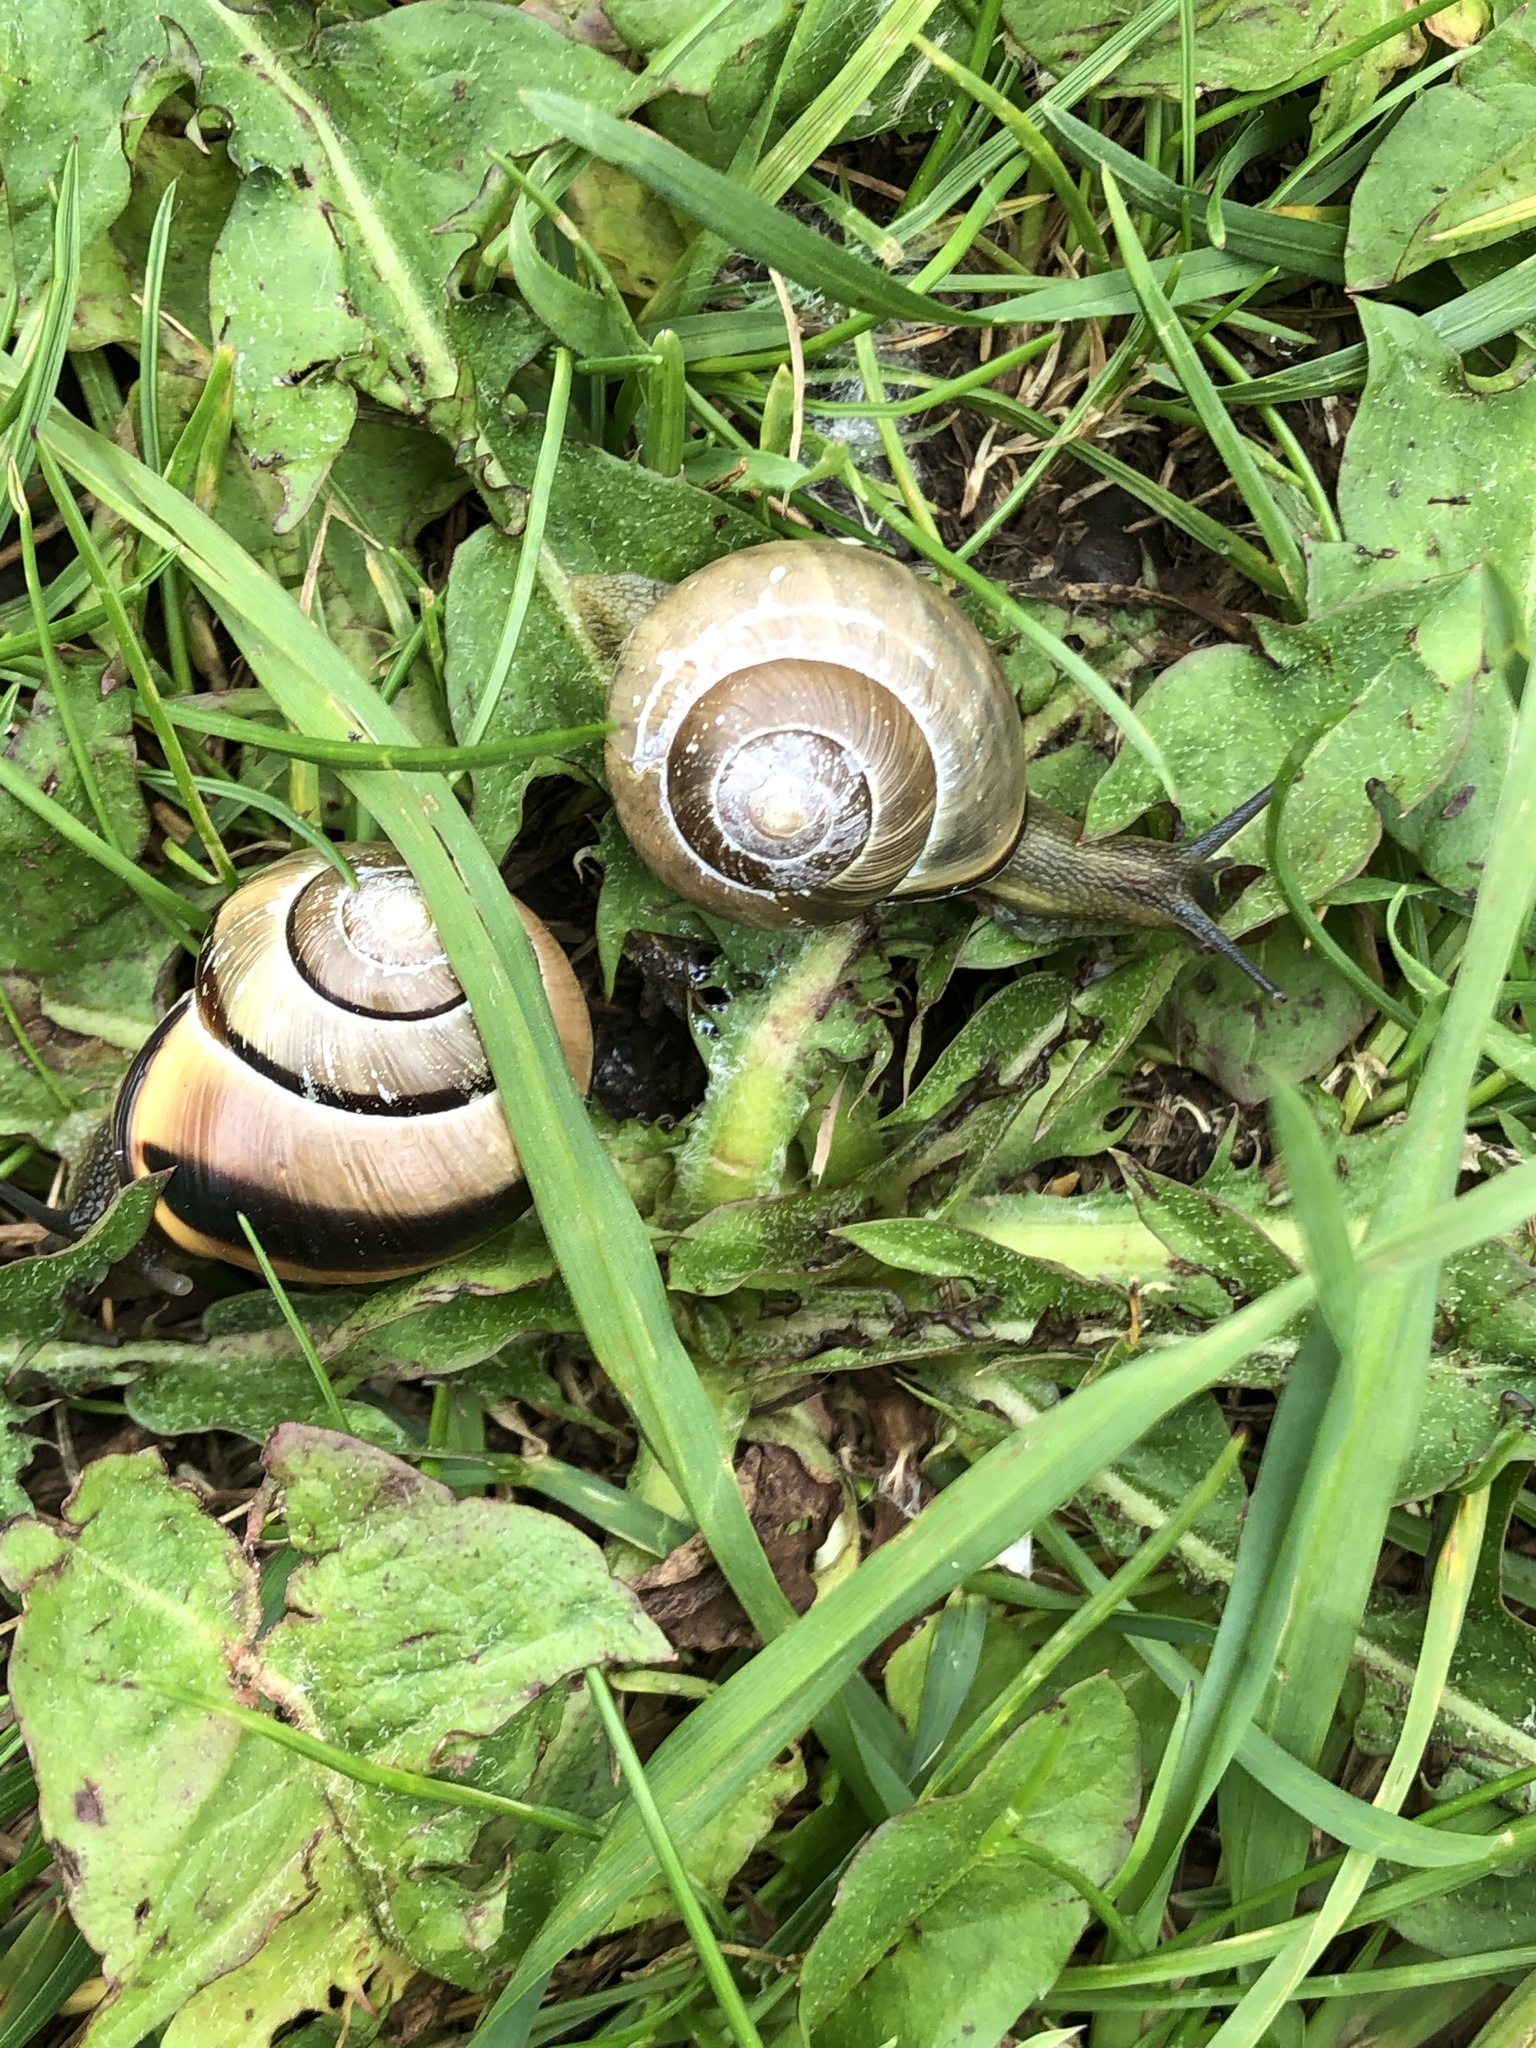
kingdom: Animalia
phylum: Mollusca
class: Gastropoda
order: Stylommatophora
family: Helicidae
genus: Cepaea
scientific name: Cepaea nemoralis
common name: Grovesnail
